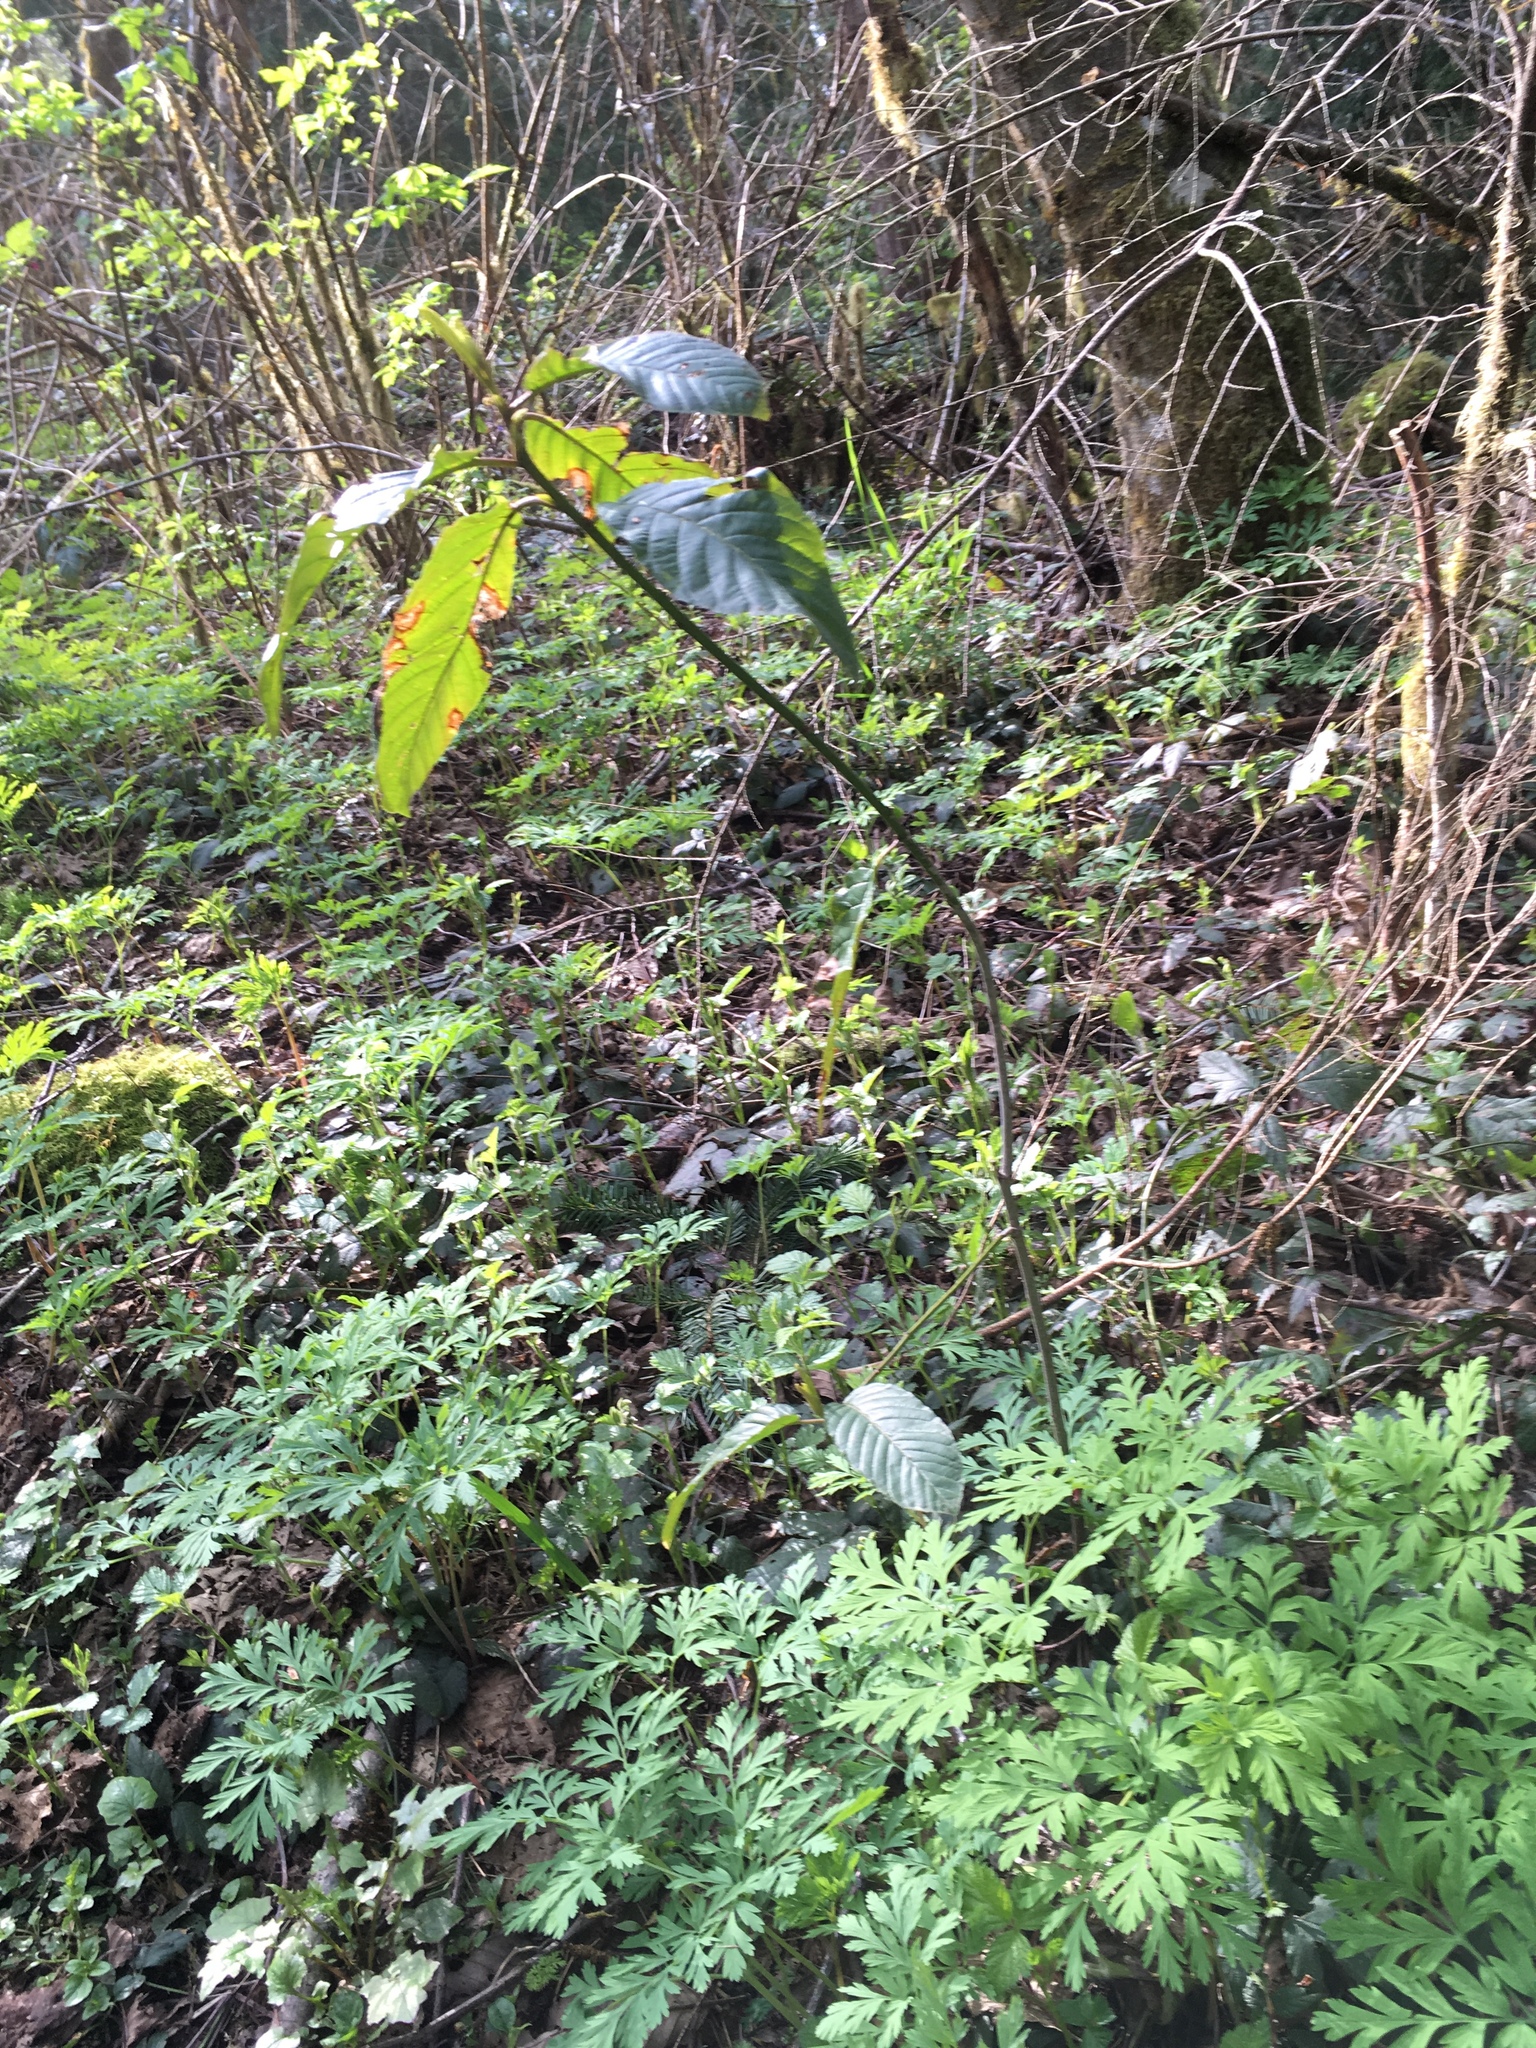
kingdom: Plantae
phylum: Tracheophyta
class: Magnoliopsida
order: Rosales
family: Rhamnaceae
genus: Frangula
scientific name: Frangula purshiana
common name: Cascara buckthorn
